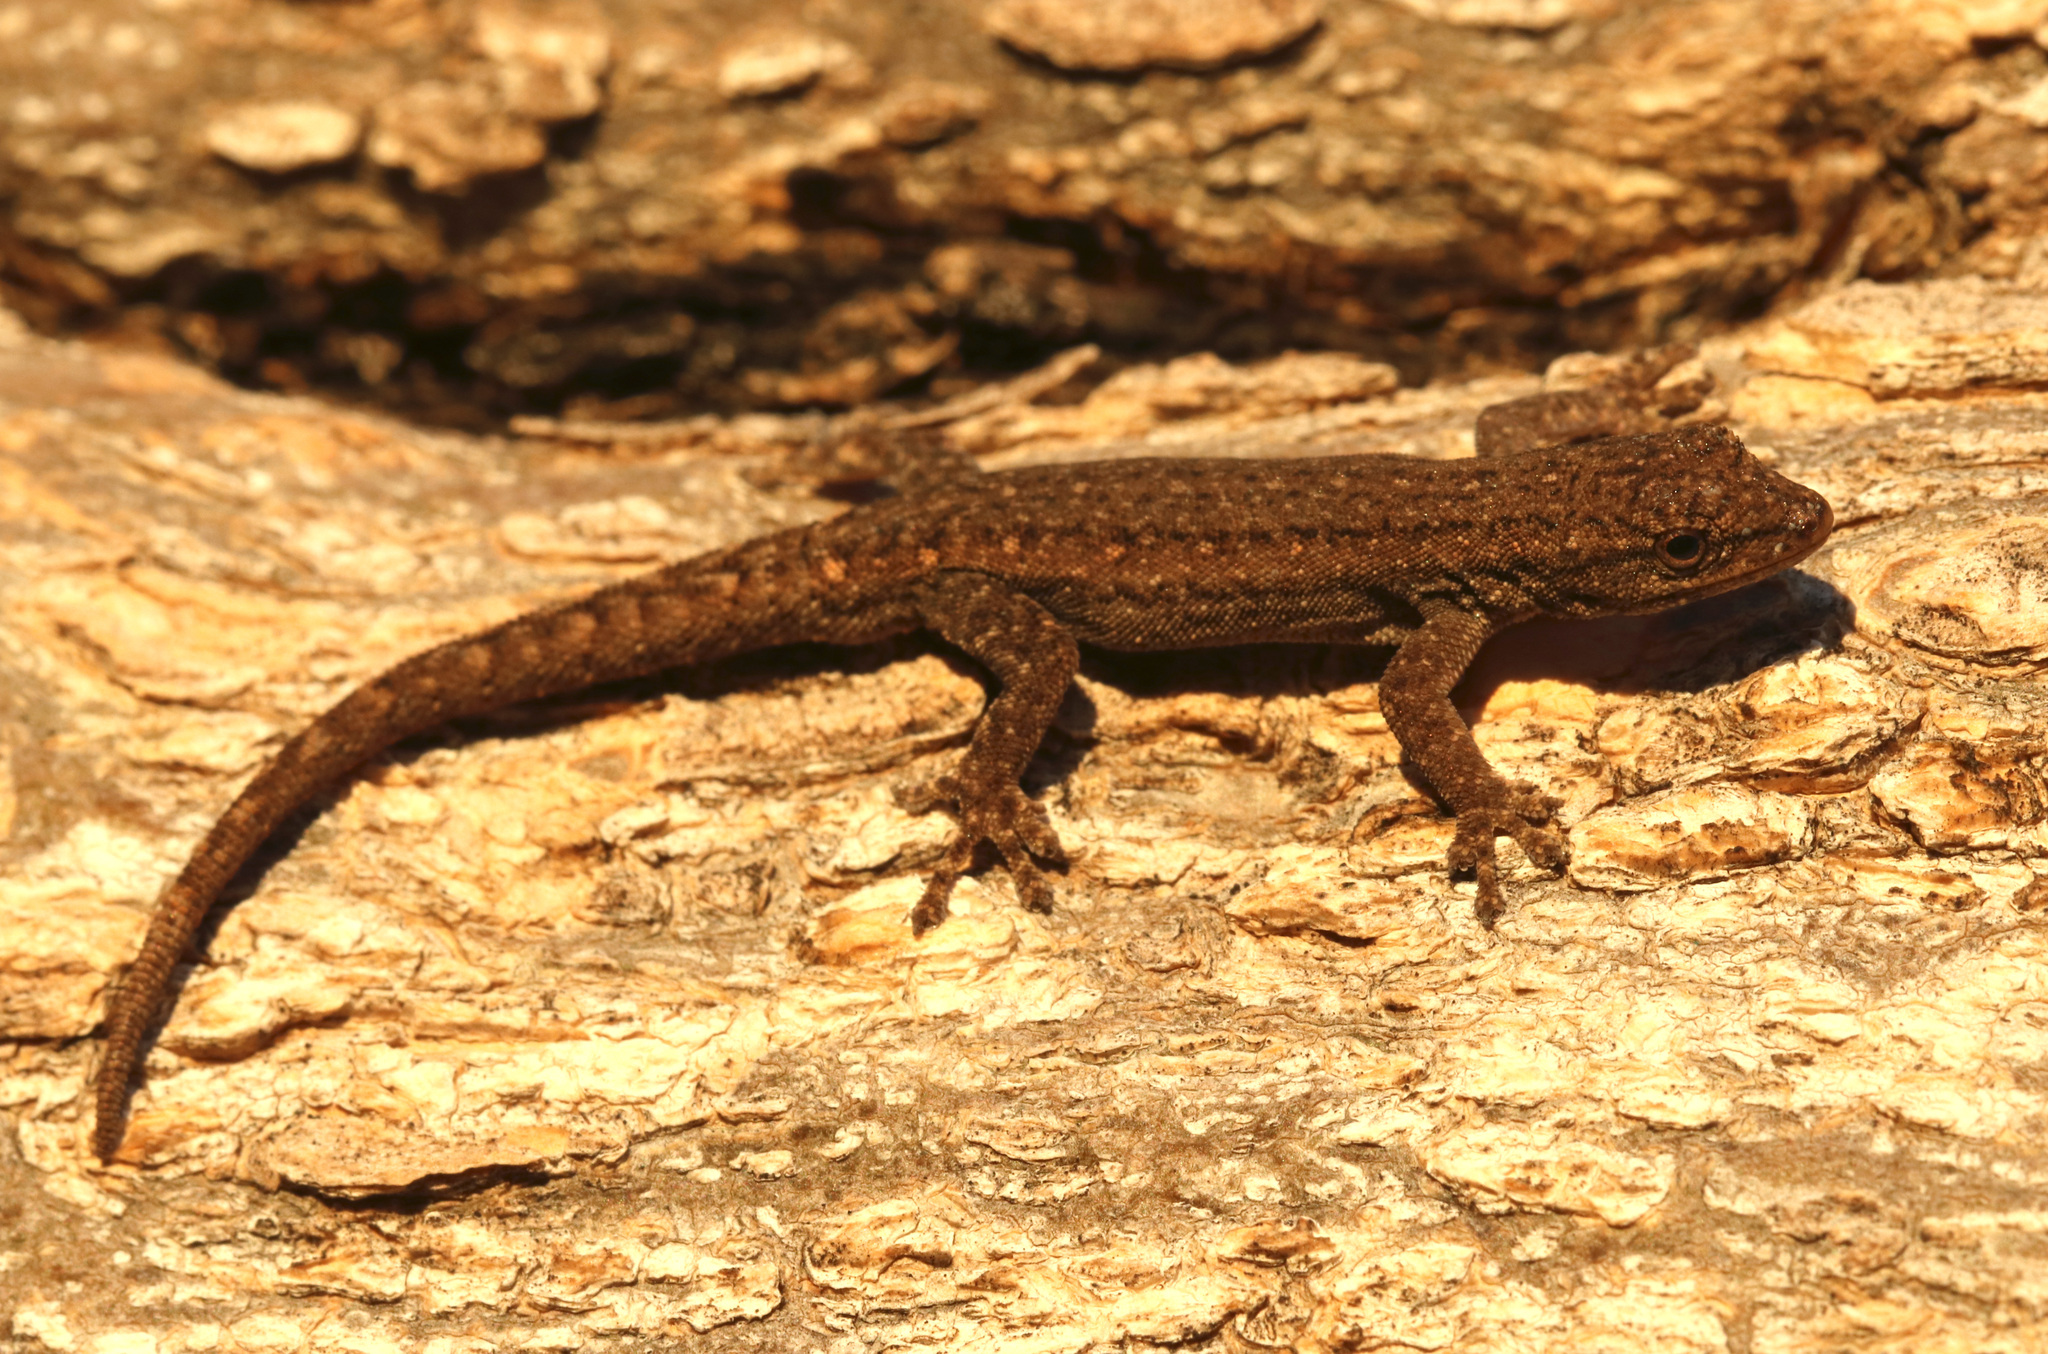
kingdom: Animalia
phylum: Chordata
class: Squamata
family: Gekkonidae
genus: Lygodactylus
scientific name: Lygodactylus bradfieldi
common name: Bradfield's dwarf gecko
